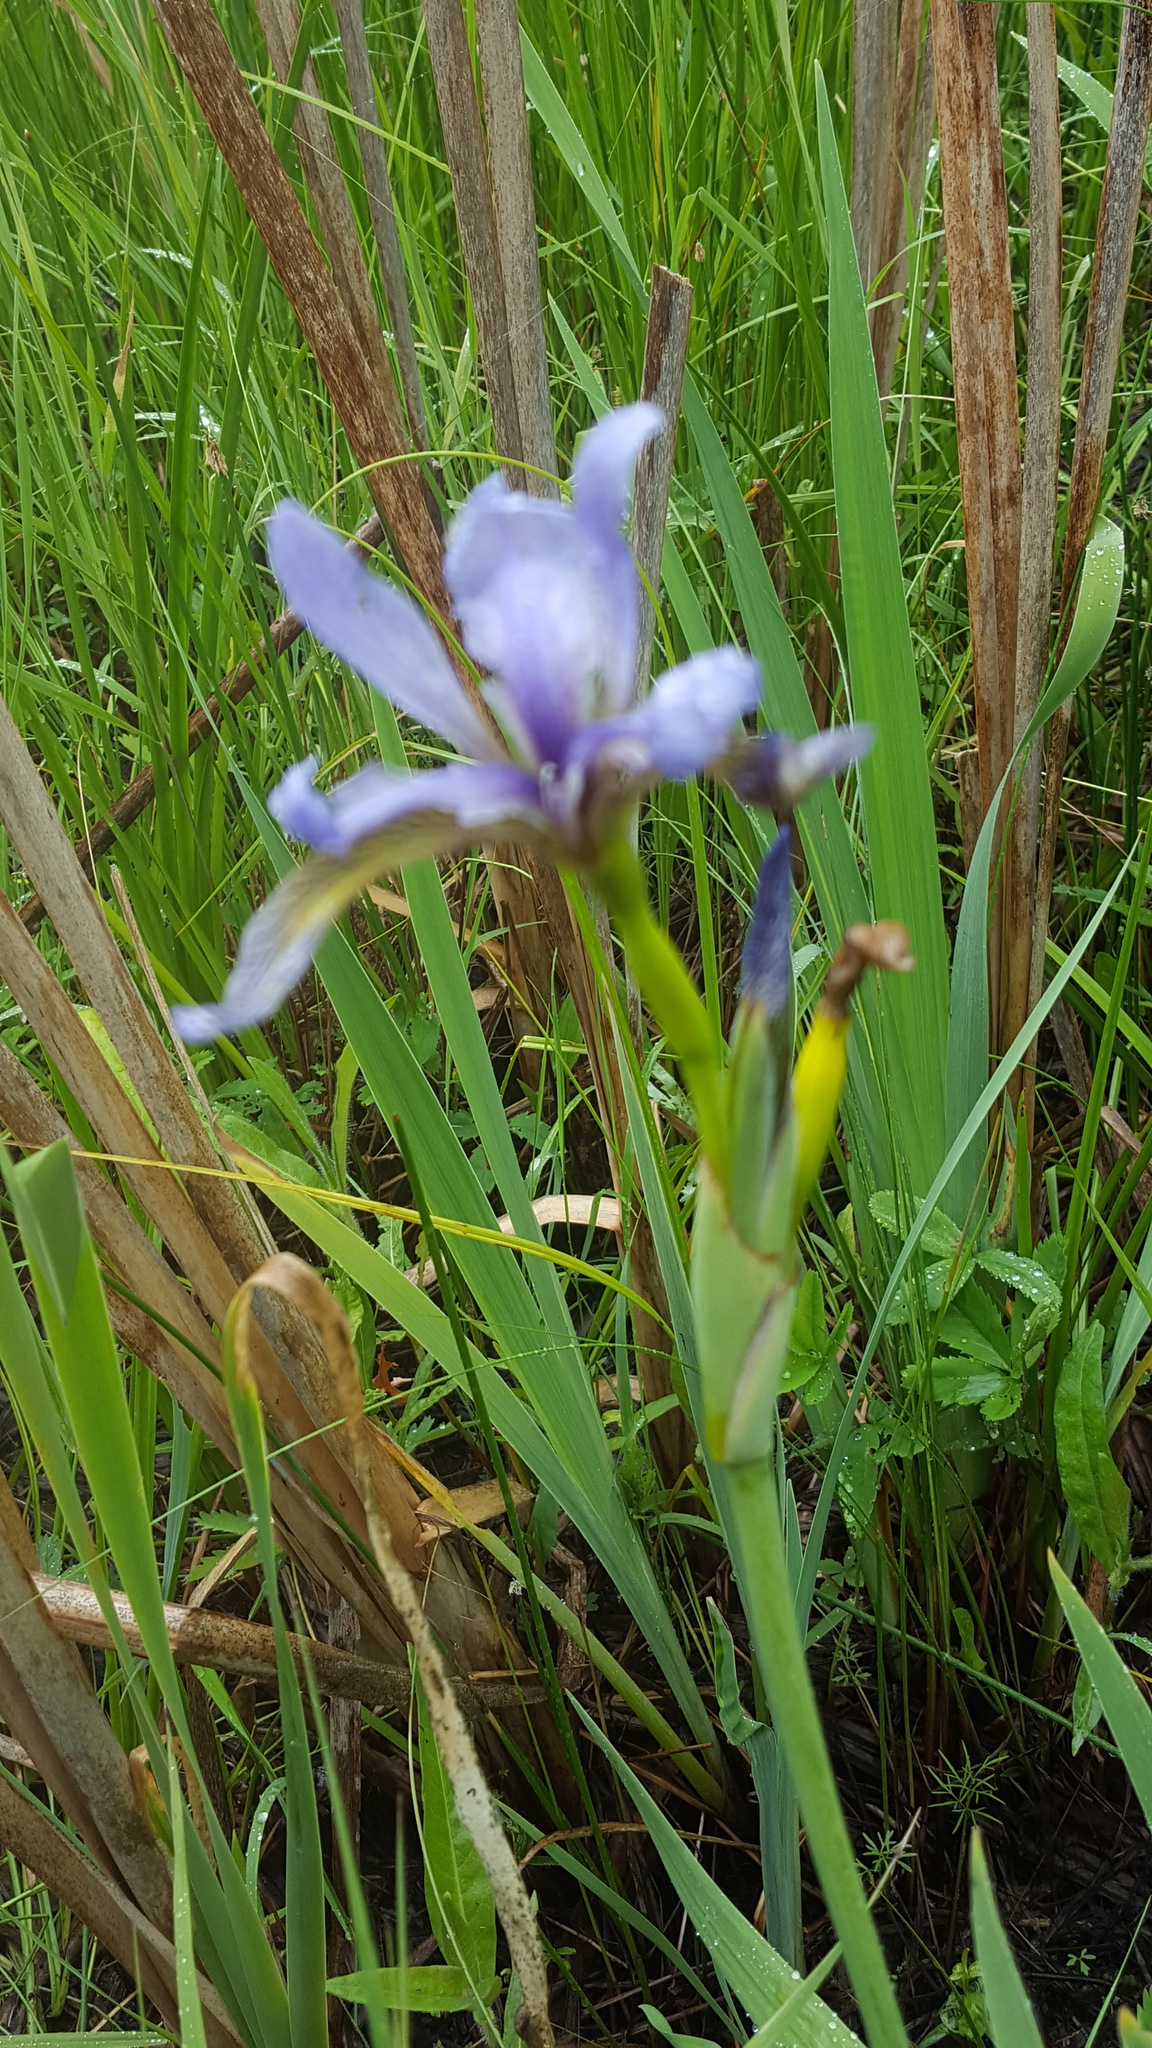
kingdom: Plantae
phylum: Tracheophyta
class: Liliopsida
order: Asparagales
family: Iridaceae
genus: Iris
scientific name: Iris versicolor
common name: Purple iris
